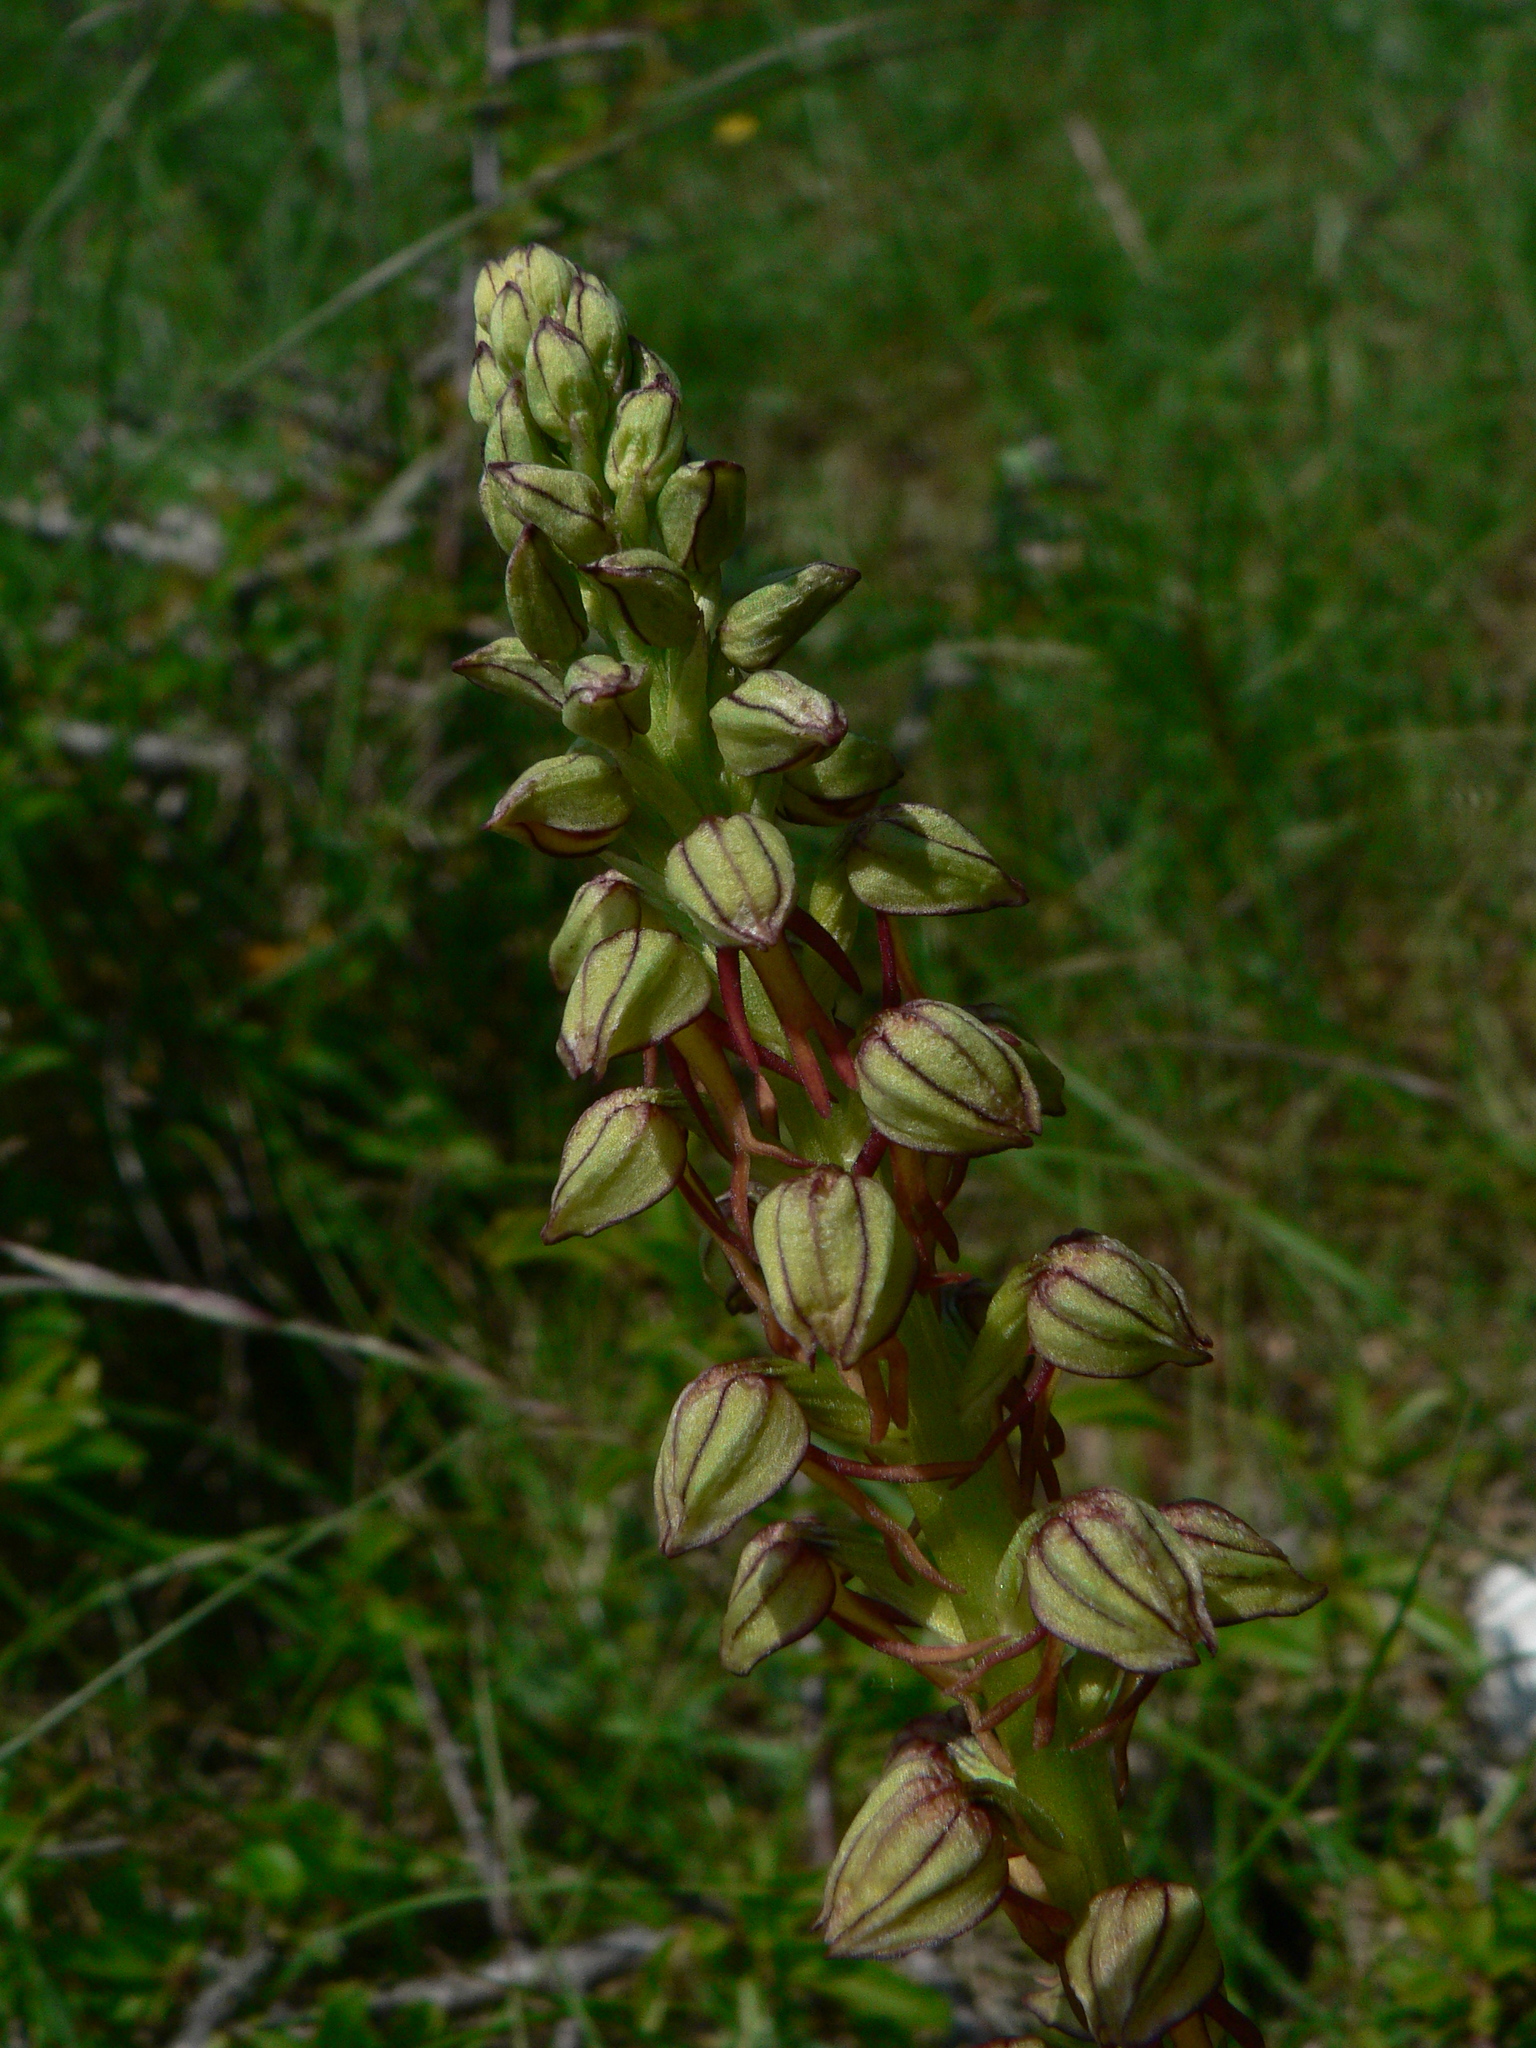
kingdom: Plantae
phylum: Tracheophyta
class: Liliopsida
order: Asparagales
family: Orchidaceae
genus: Orchis
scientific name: Orchis anthropophora
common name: Man orchid
